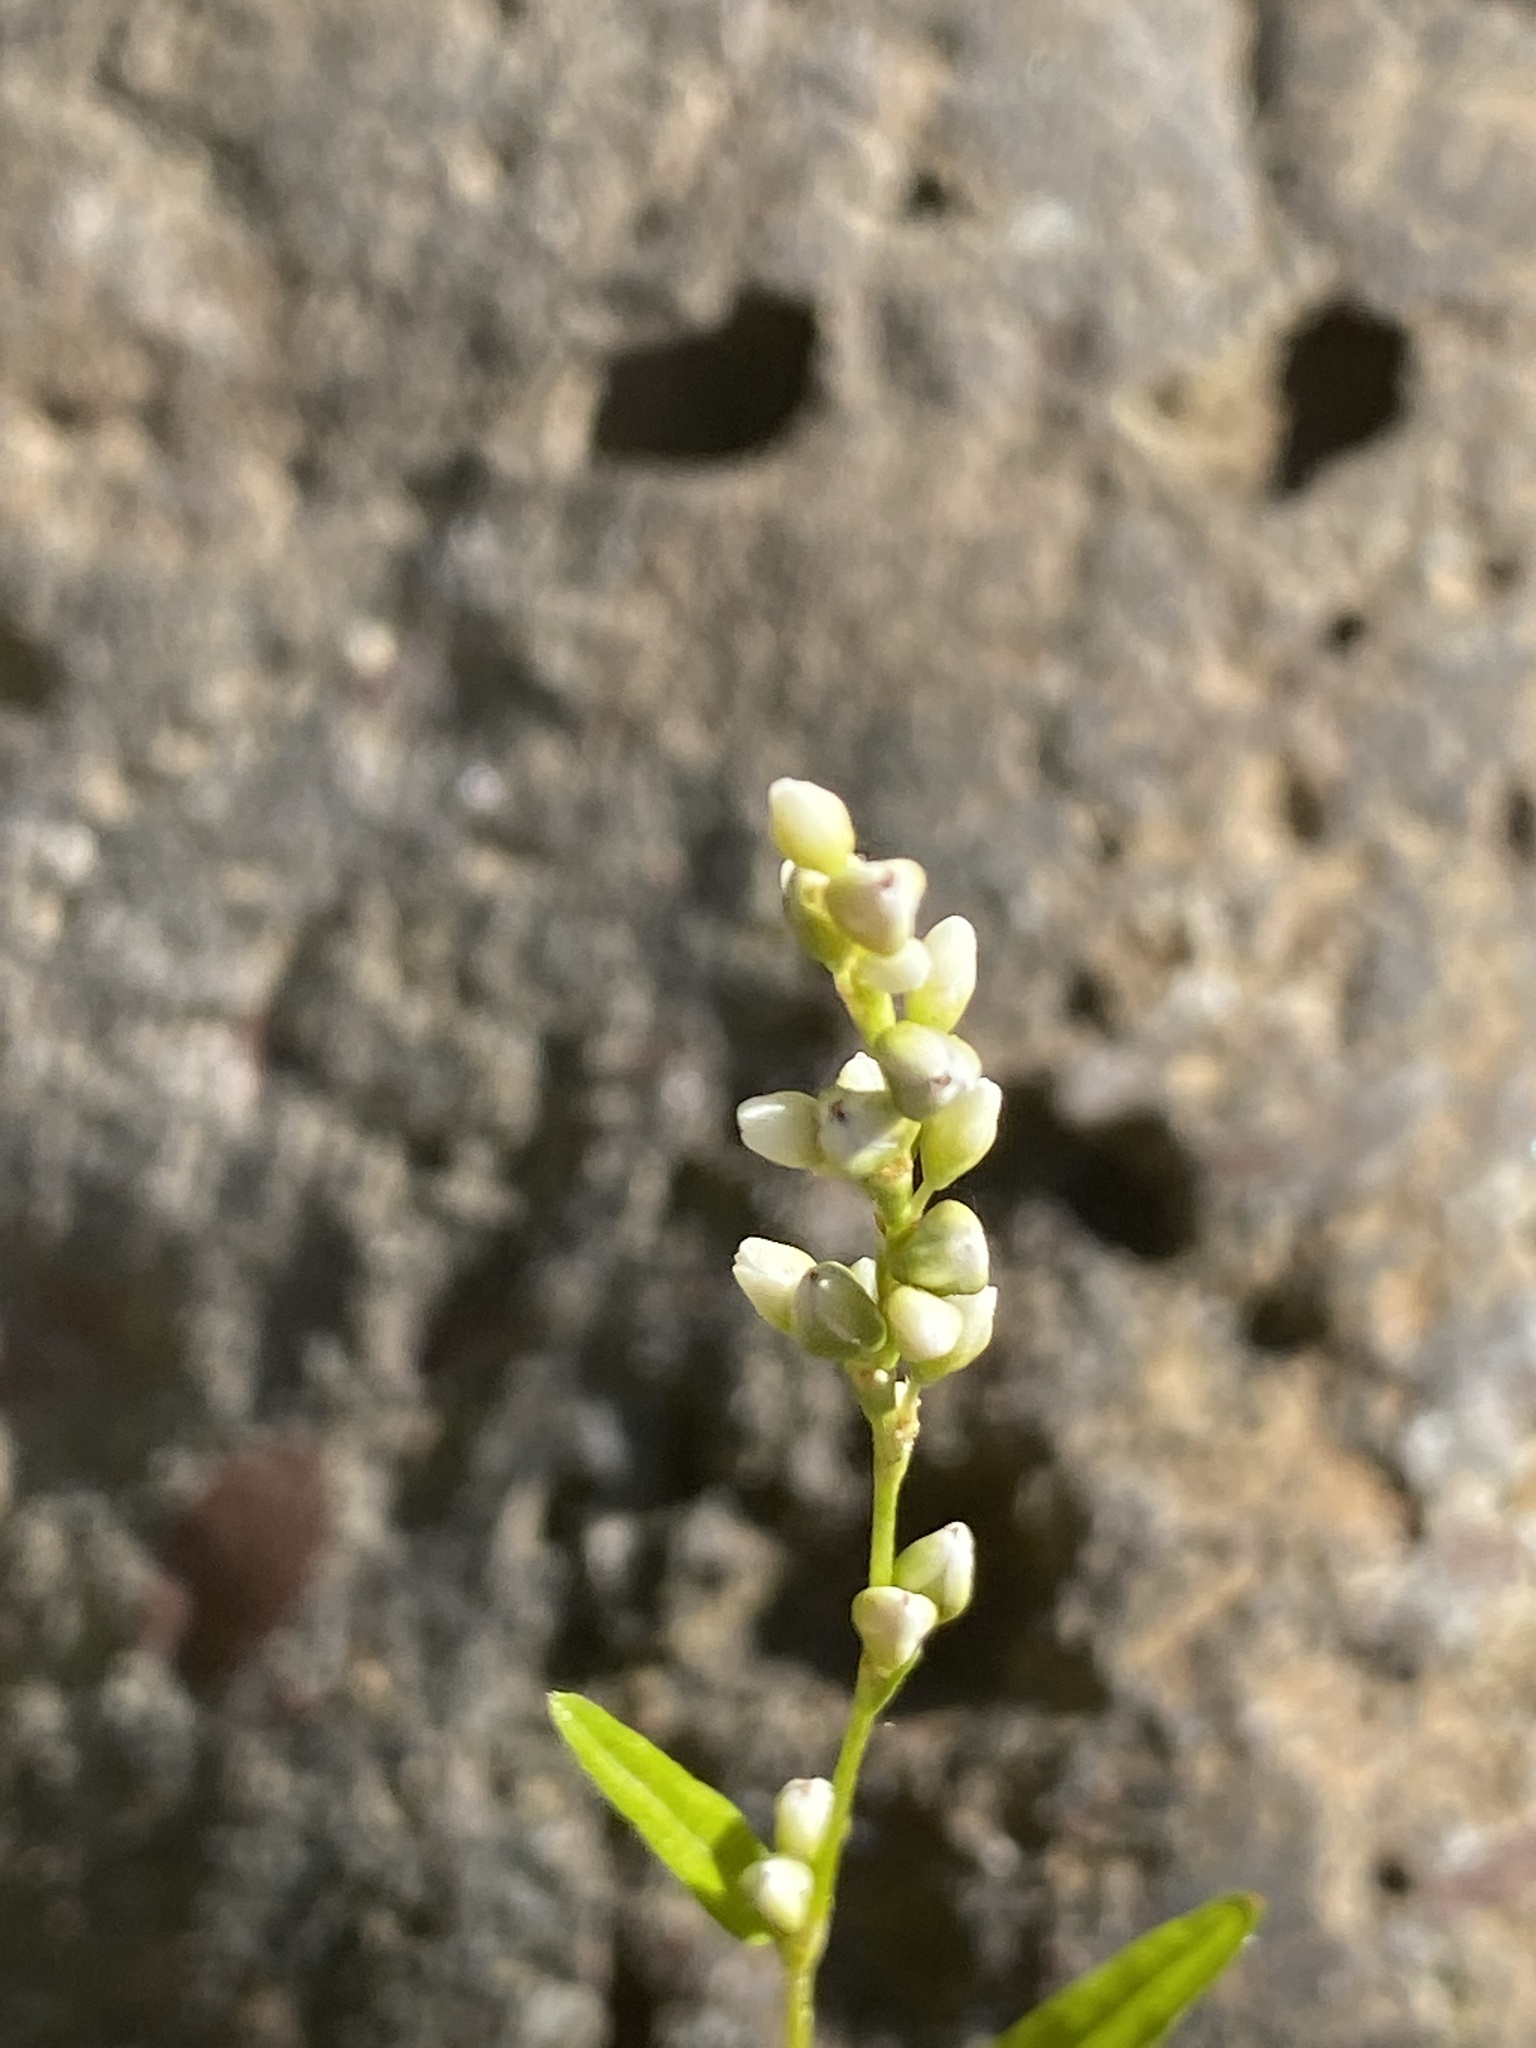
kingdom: Plantae
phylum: Tracheophyta
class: Magnoliopsida
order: Caryophyllales
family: Polygonaceae
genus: Persicaria
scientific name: Persicaria punctata
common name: Dotted smartweed
